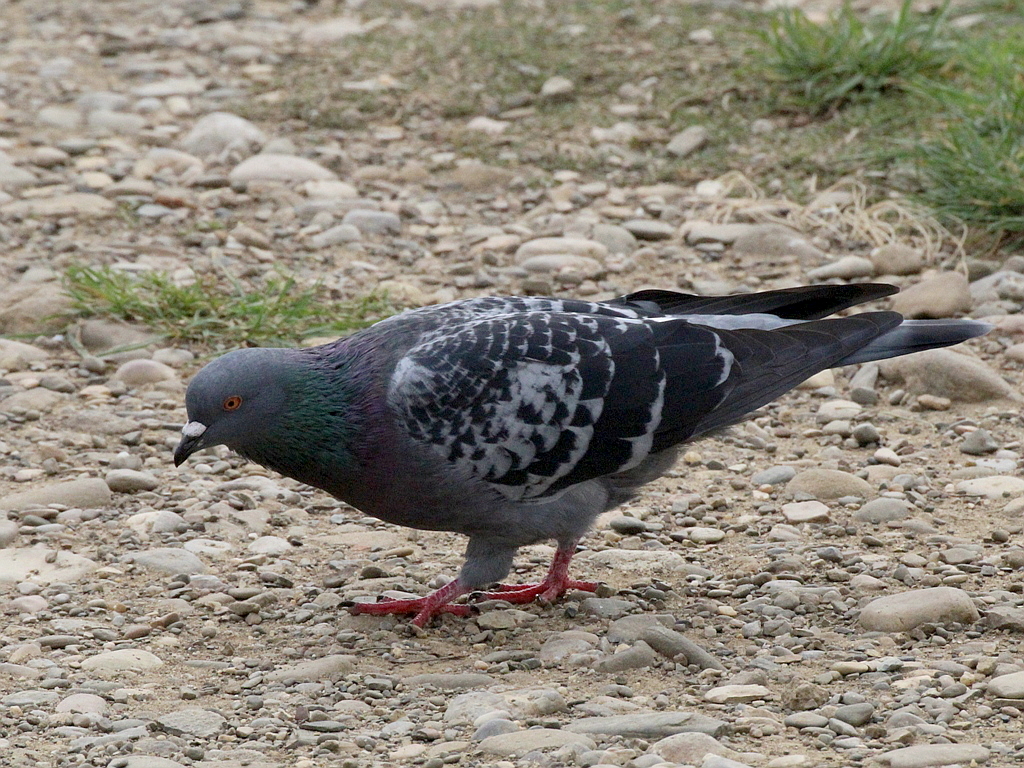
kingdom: Animalia
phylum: Chordata
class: Aves
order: Columbiformes
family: Columbidae
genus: Columba
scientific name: Columba livia
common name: Rock pigeon
